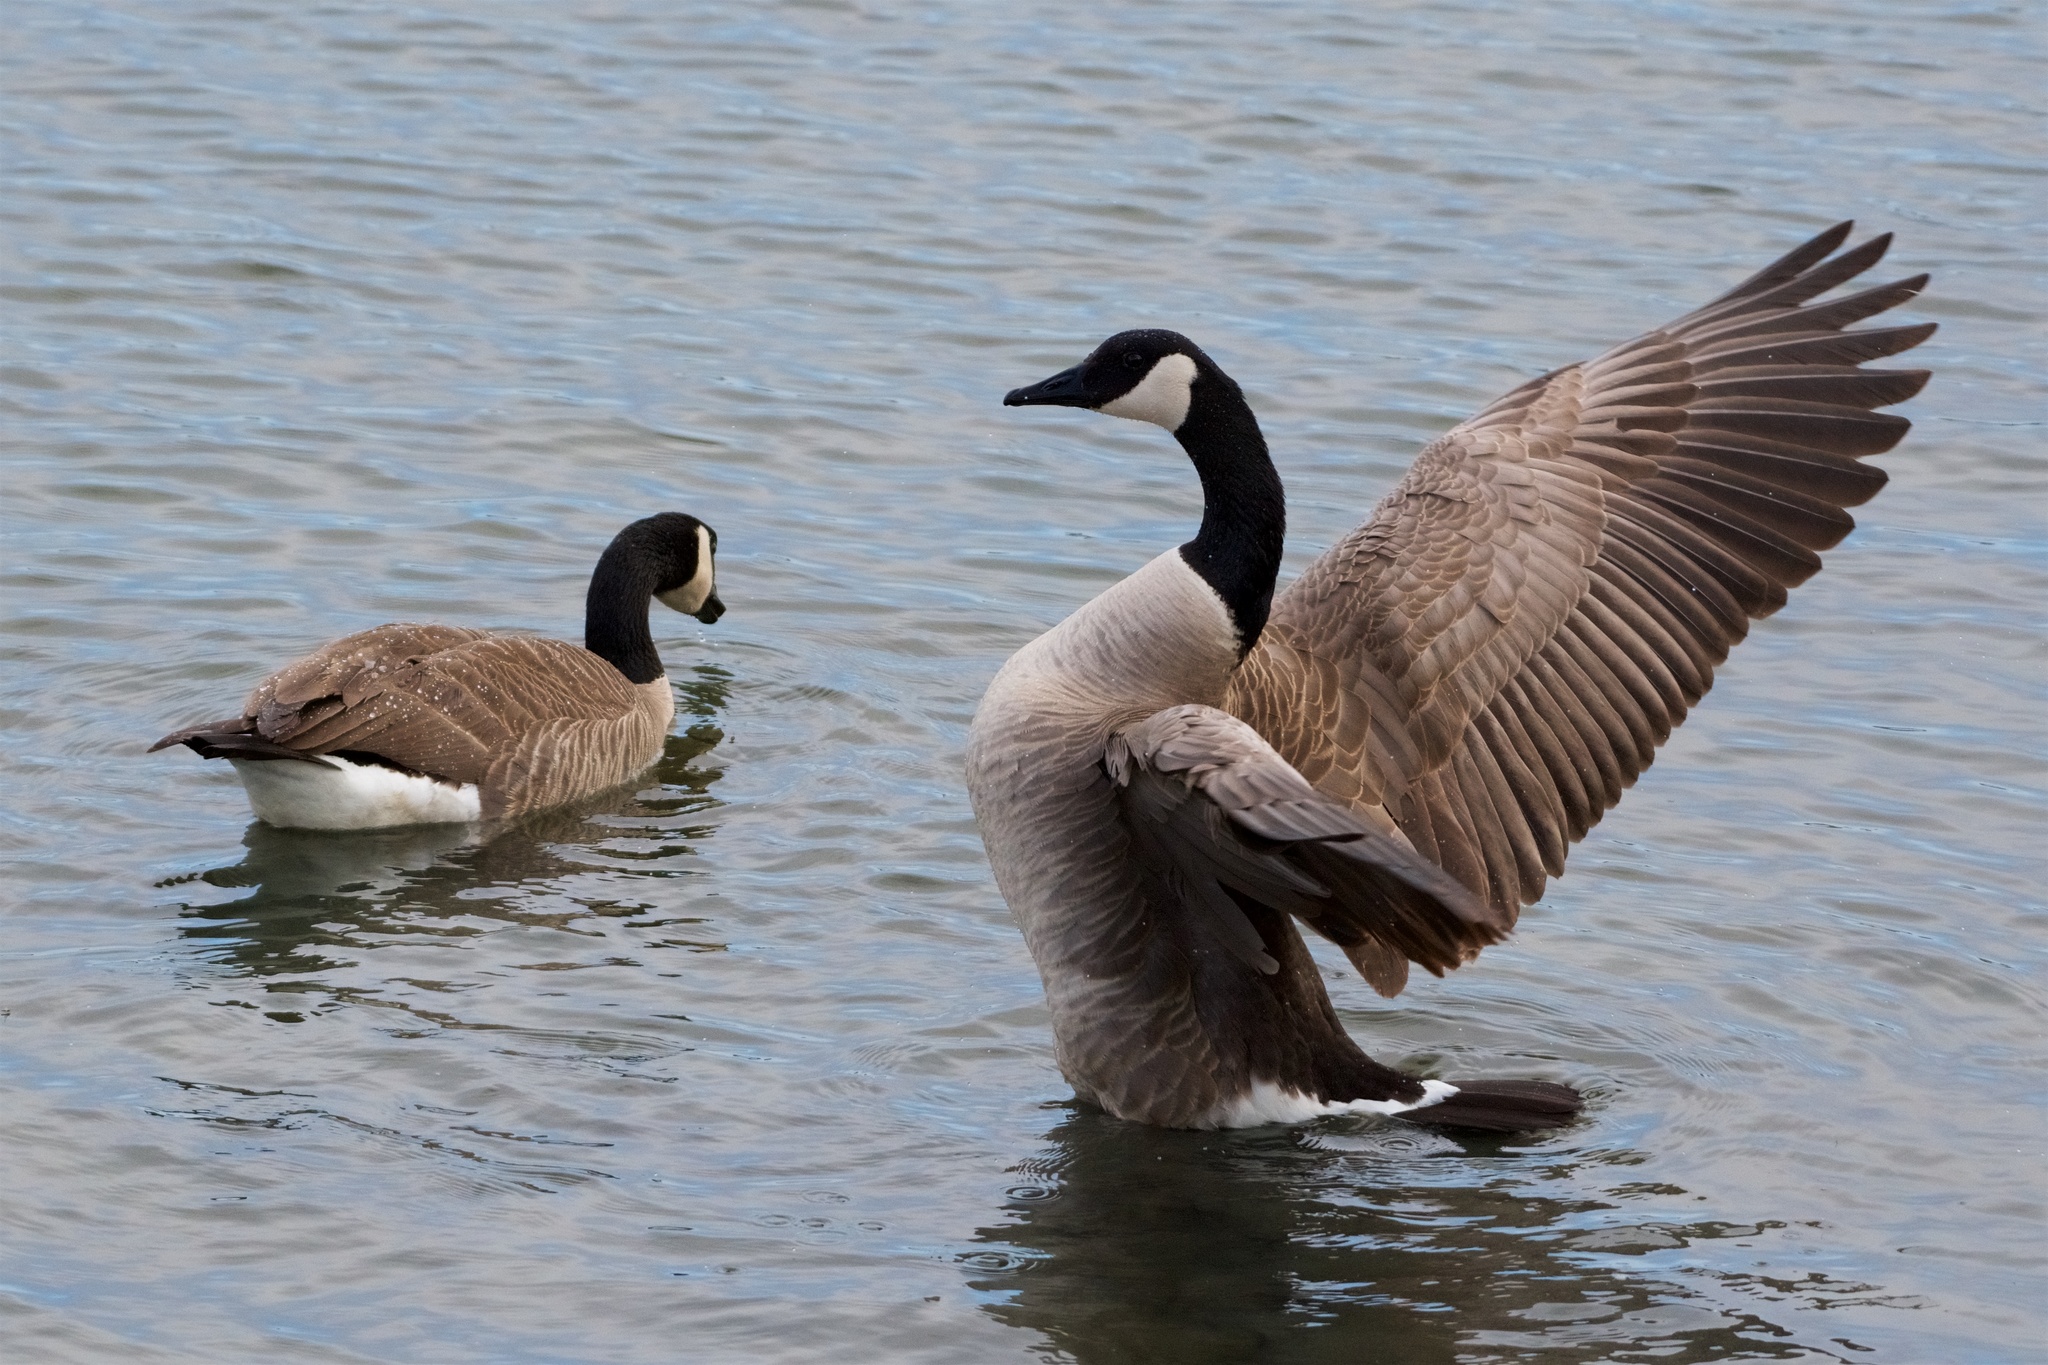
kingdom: Animalia
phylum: Chordata
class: Aves
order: Anseriformes
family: Anatidae
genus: Branta
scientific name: Branta canadensis
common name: Canada goose
